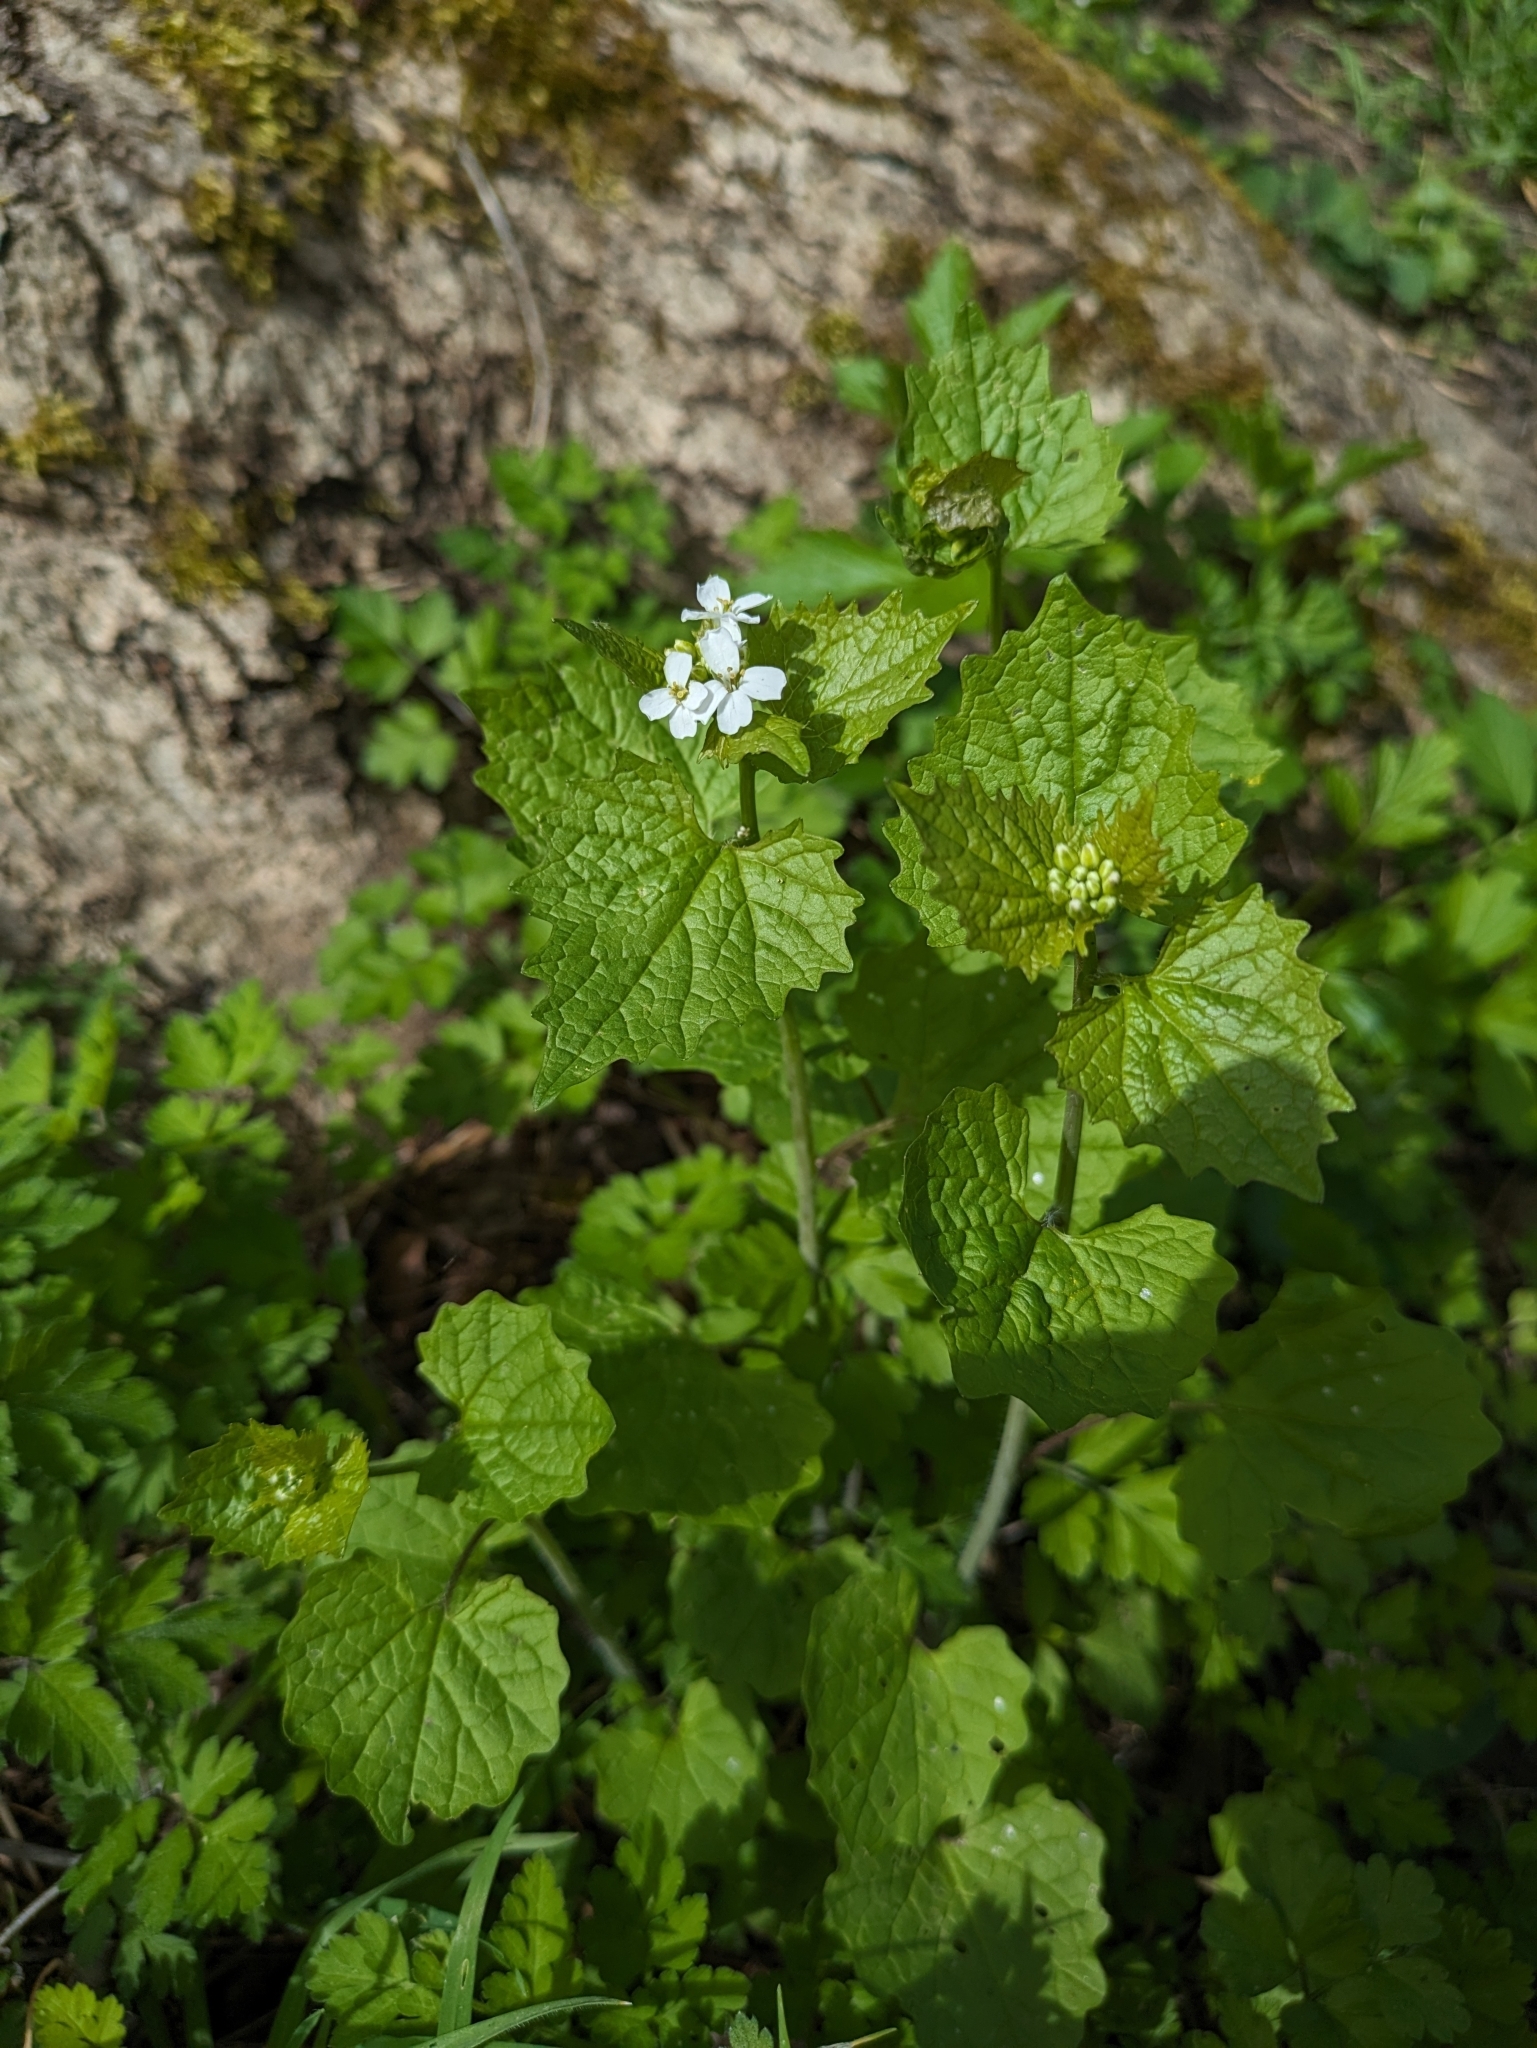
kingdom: Plantae
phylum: Tracheophyta
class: Magnoliopsida
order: Brassicales
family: Brassicaceae
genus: Alliaria
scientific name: Alliaria petiolata
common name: Garlic mustard
